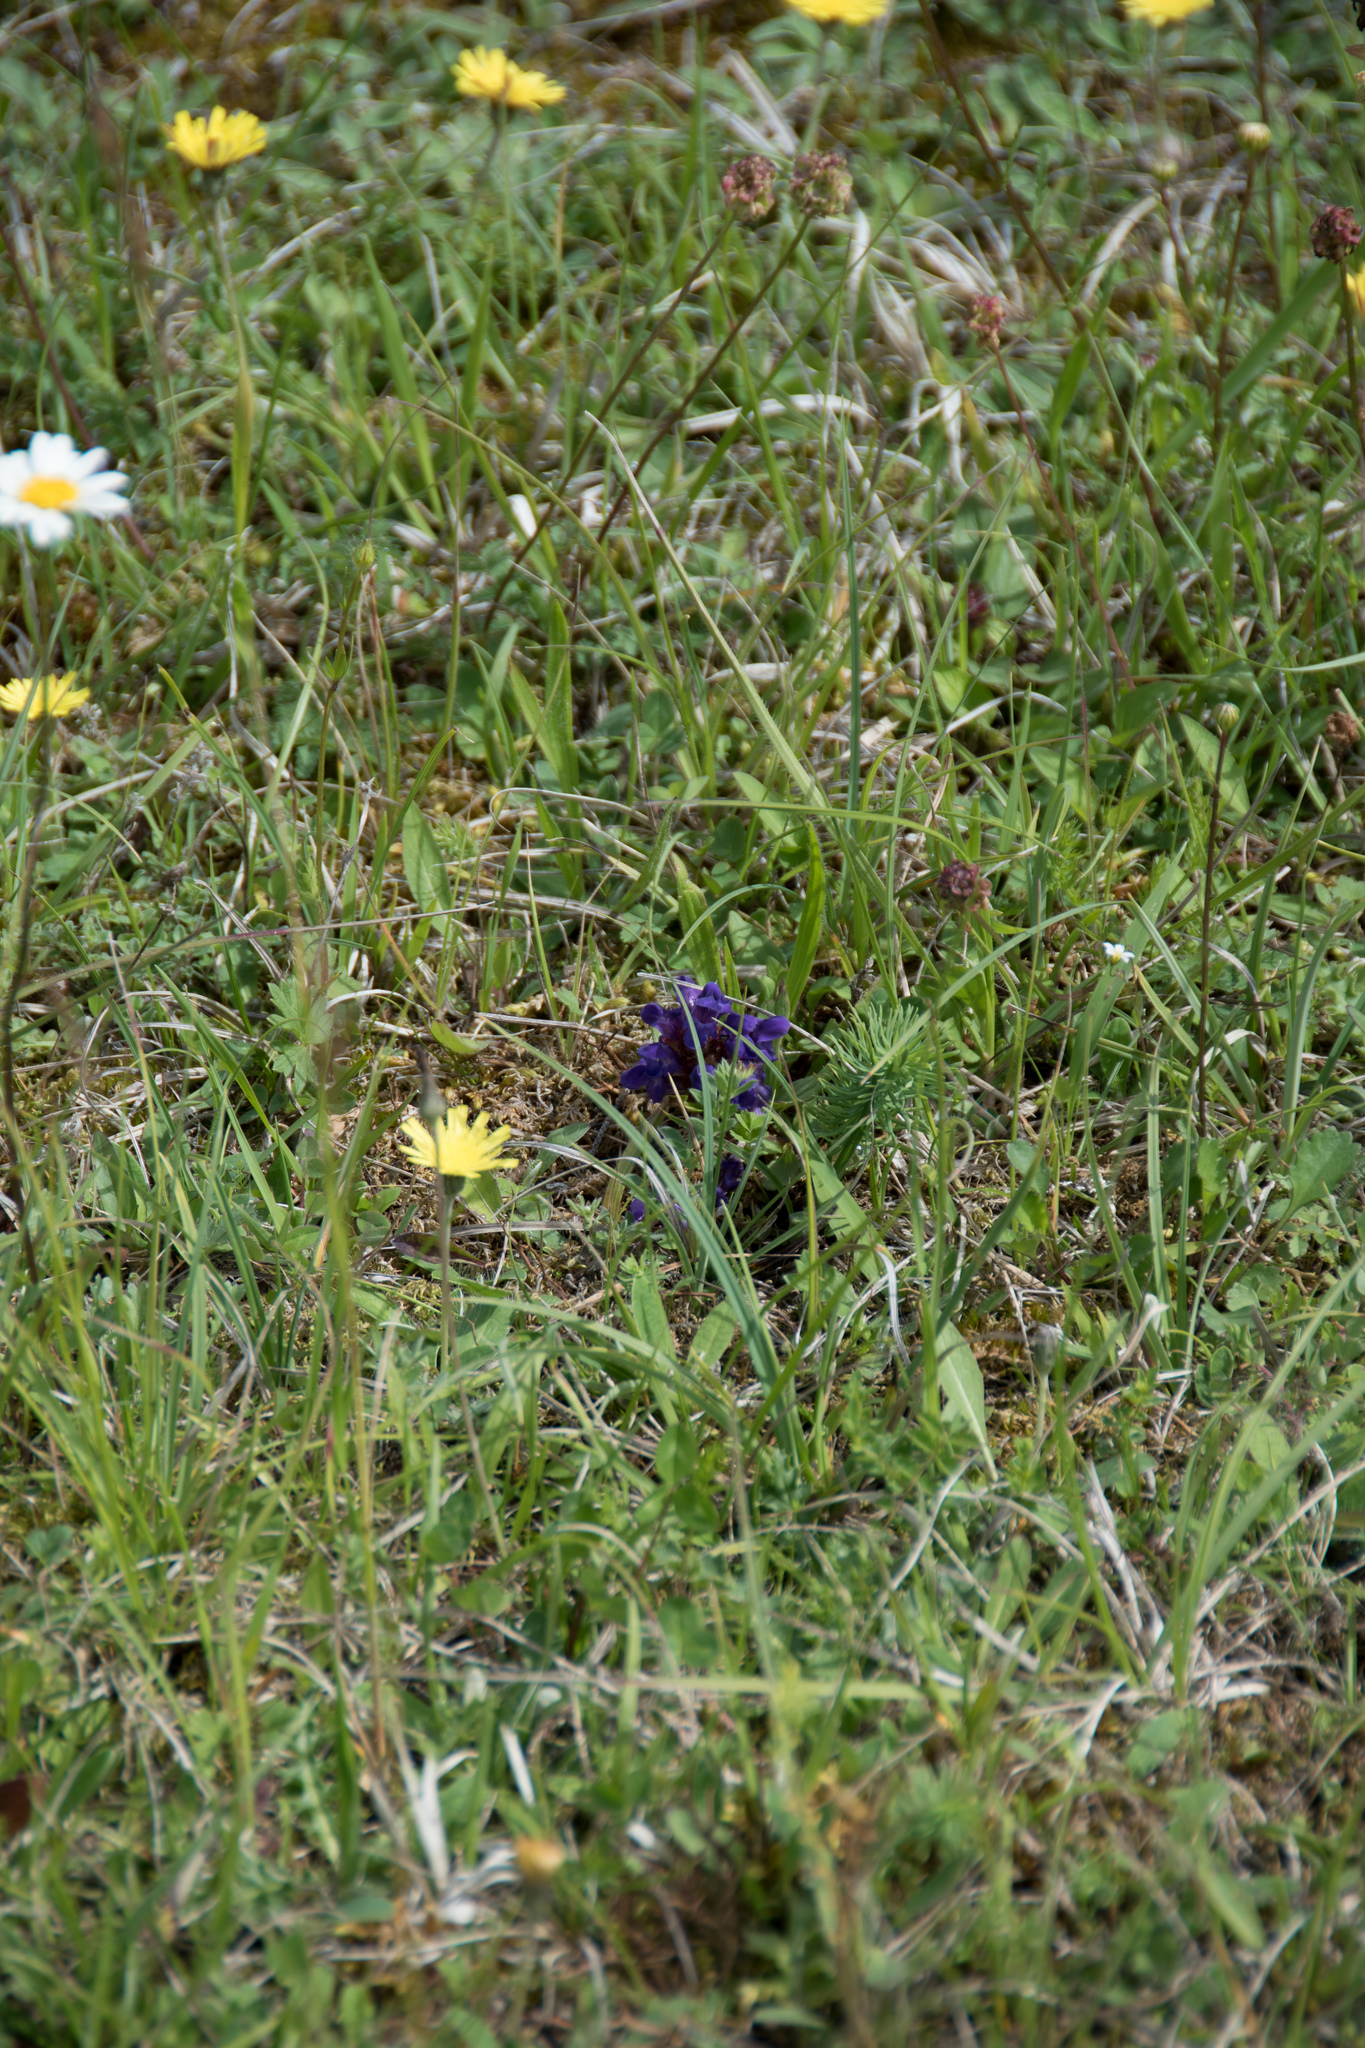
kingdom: Plantae
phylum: Tracheophyta
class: Magnoliopsida
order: Lamiales
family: Lamiaceae
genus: Prunella
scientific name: Prunella vulgaris
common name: Heal-all
